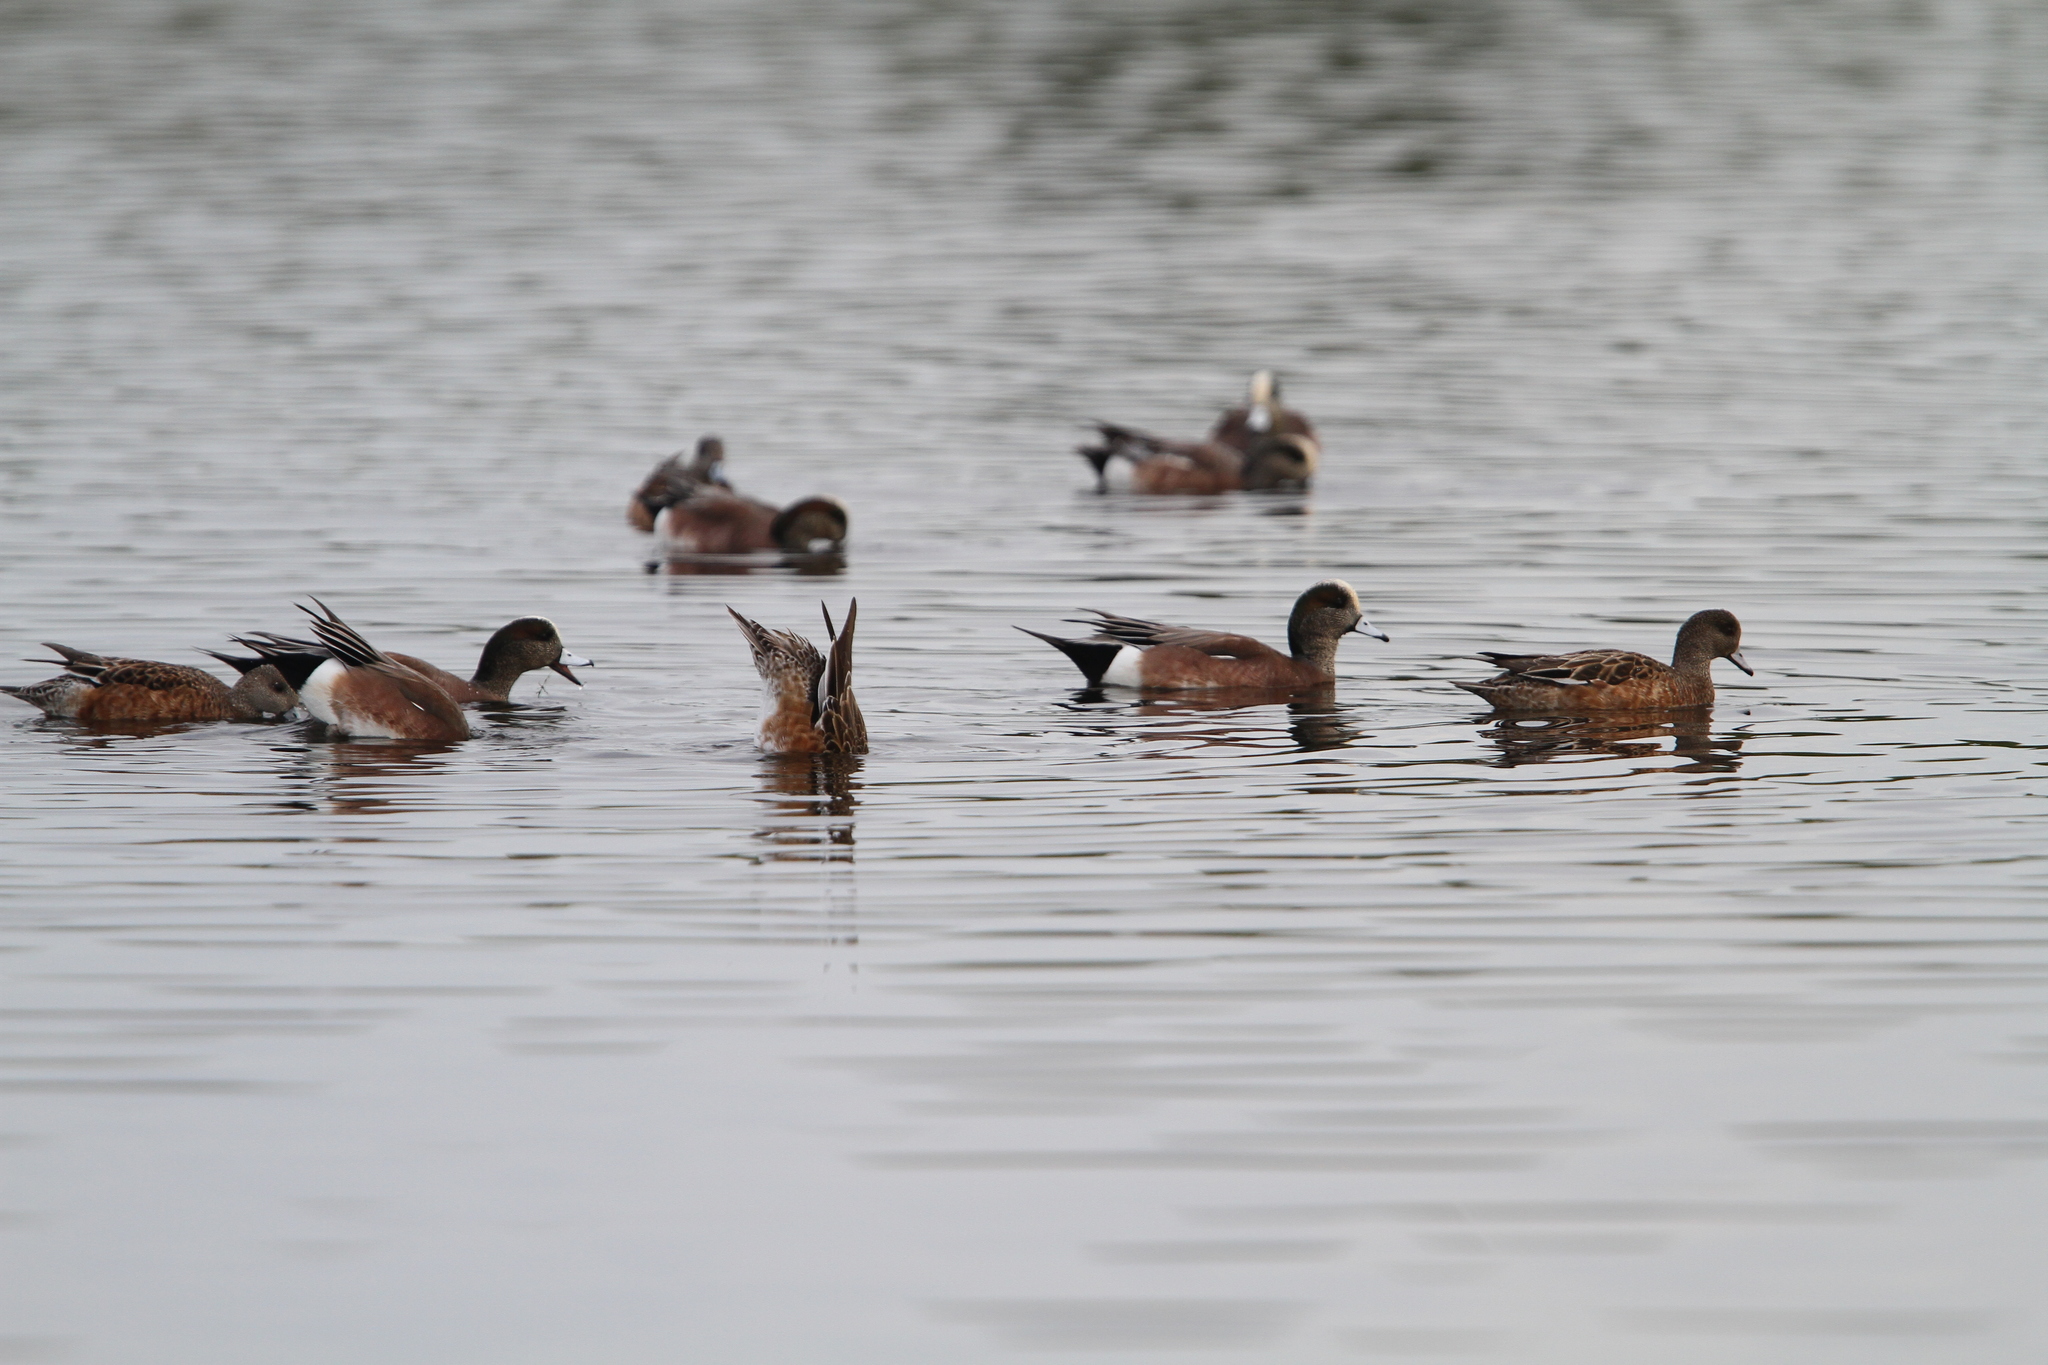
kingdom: Animalia
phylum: Chordata
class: Aves
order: Anseriformes
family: Anatidae
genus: Mareca
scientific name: Mareca americana
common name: American wigeon
